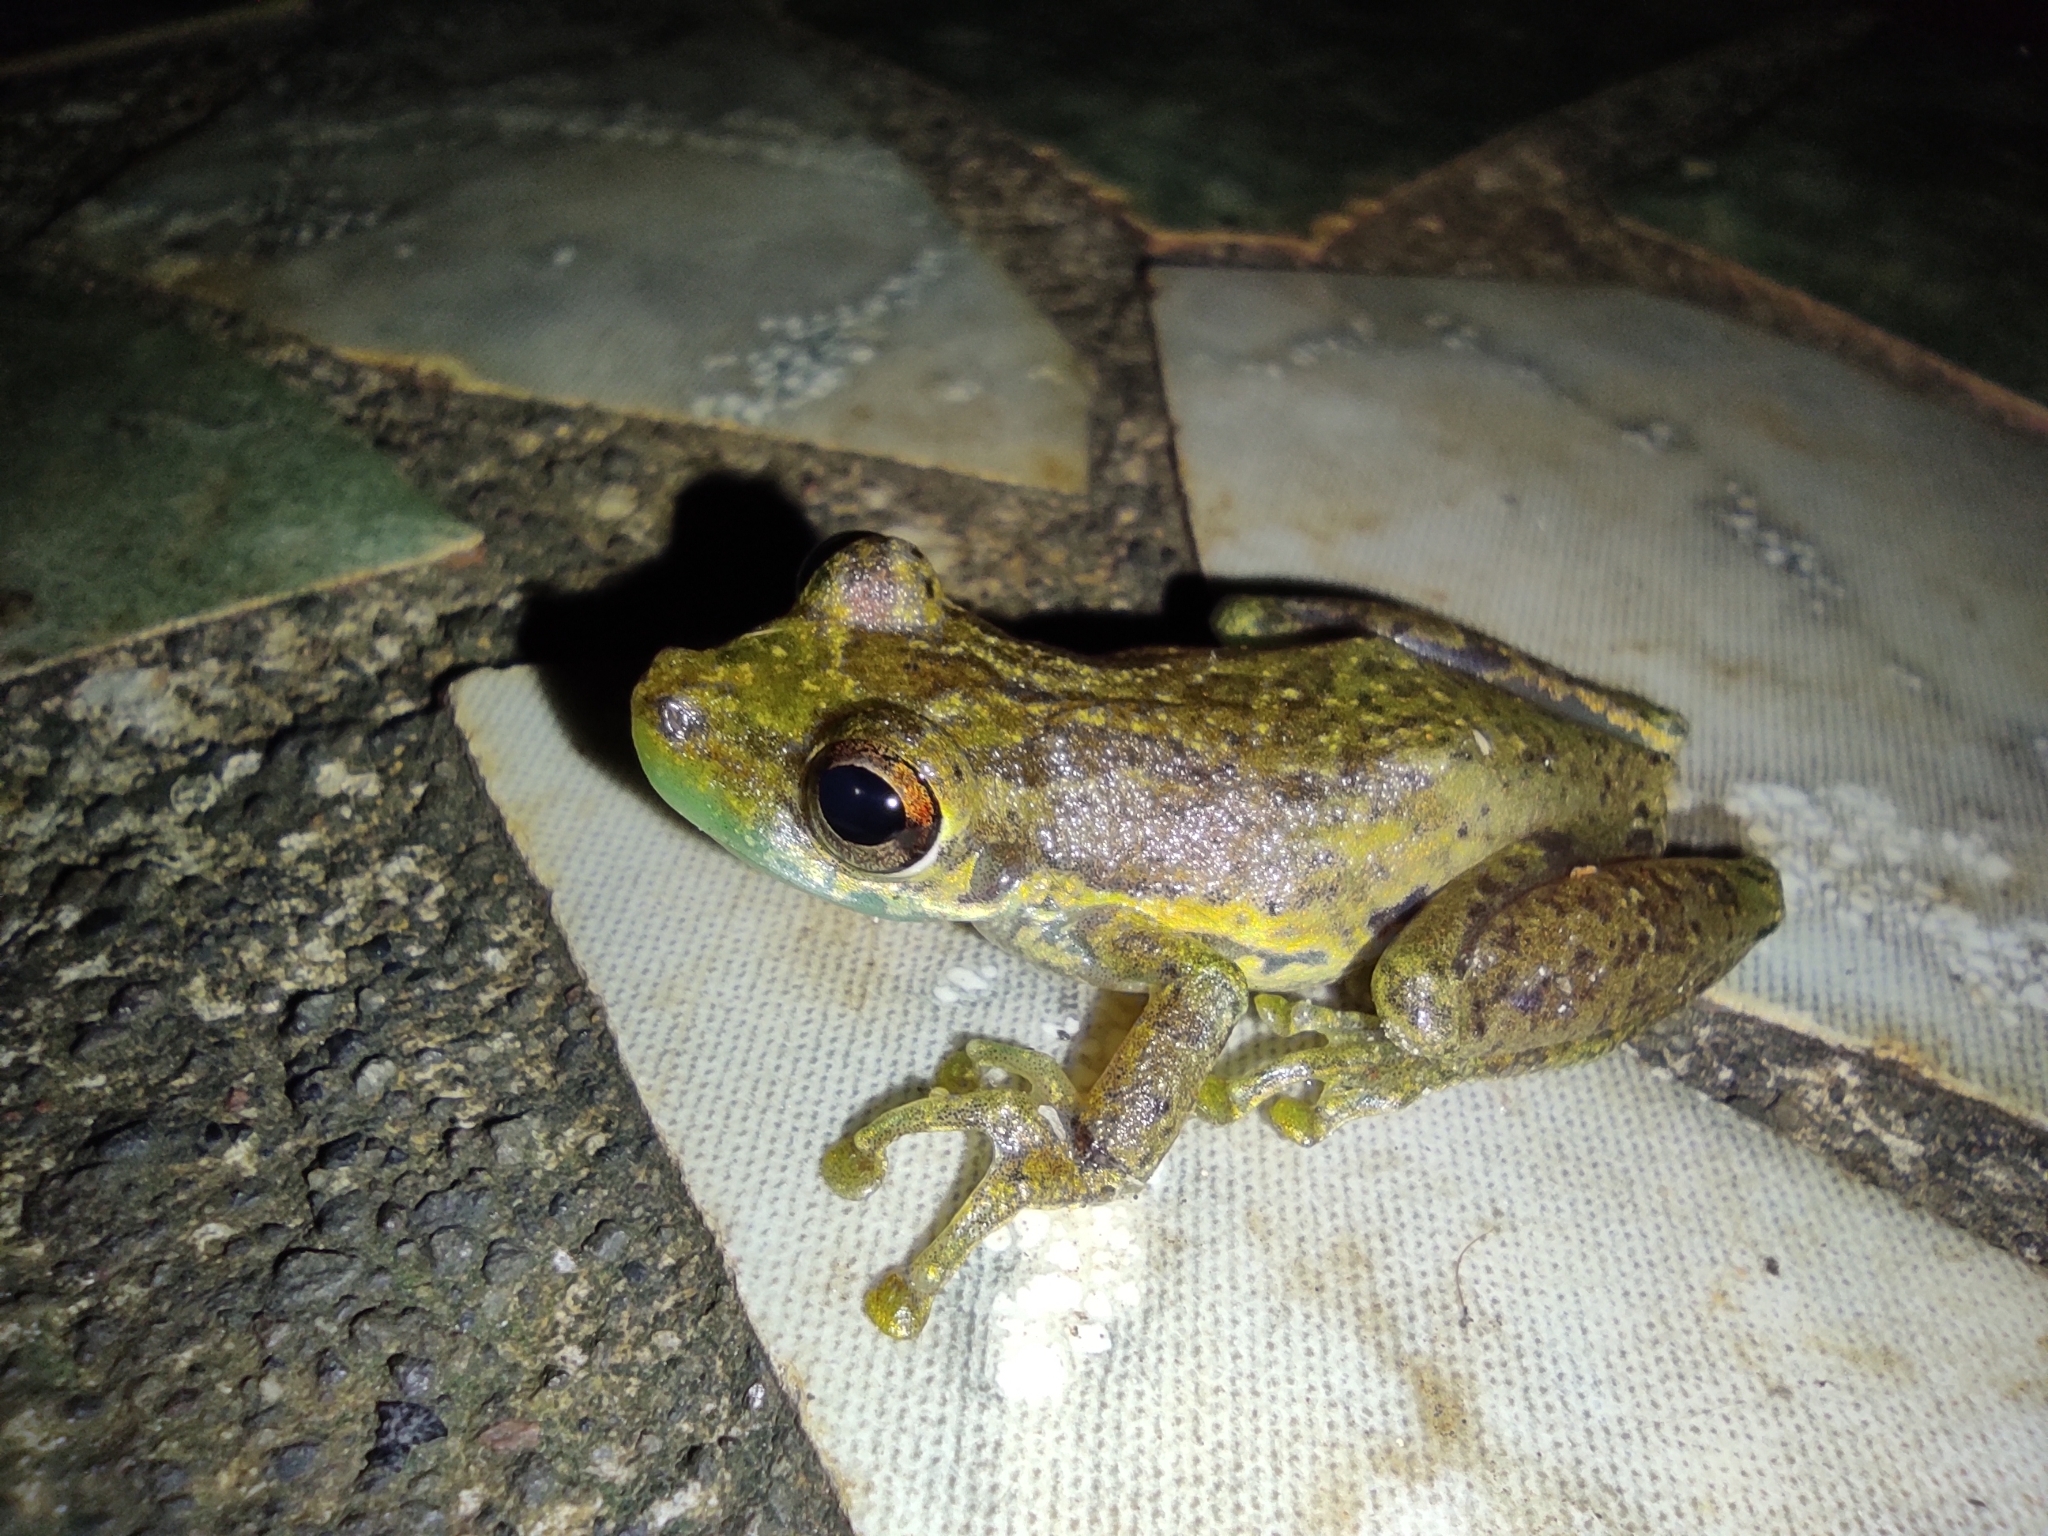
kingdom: Animalia
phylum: Chordata
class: Amphibia
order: Anura
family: Hylidae
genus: Scinax
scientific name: Scinax elaeochroa
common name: Sipurio snouted treefrog
